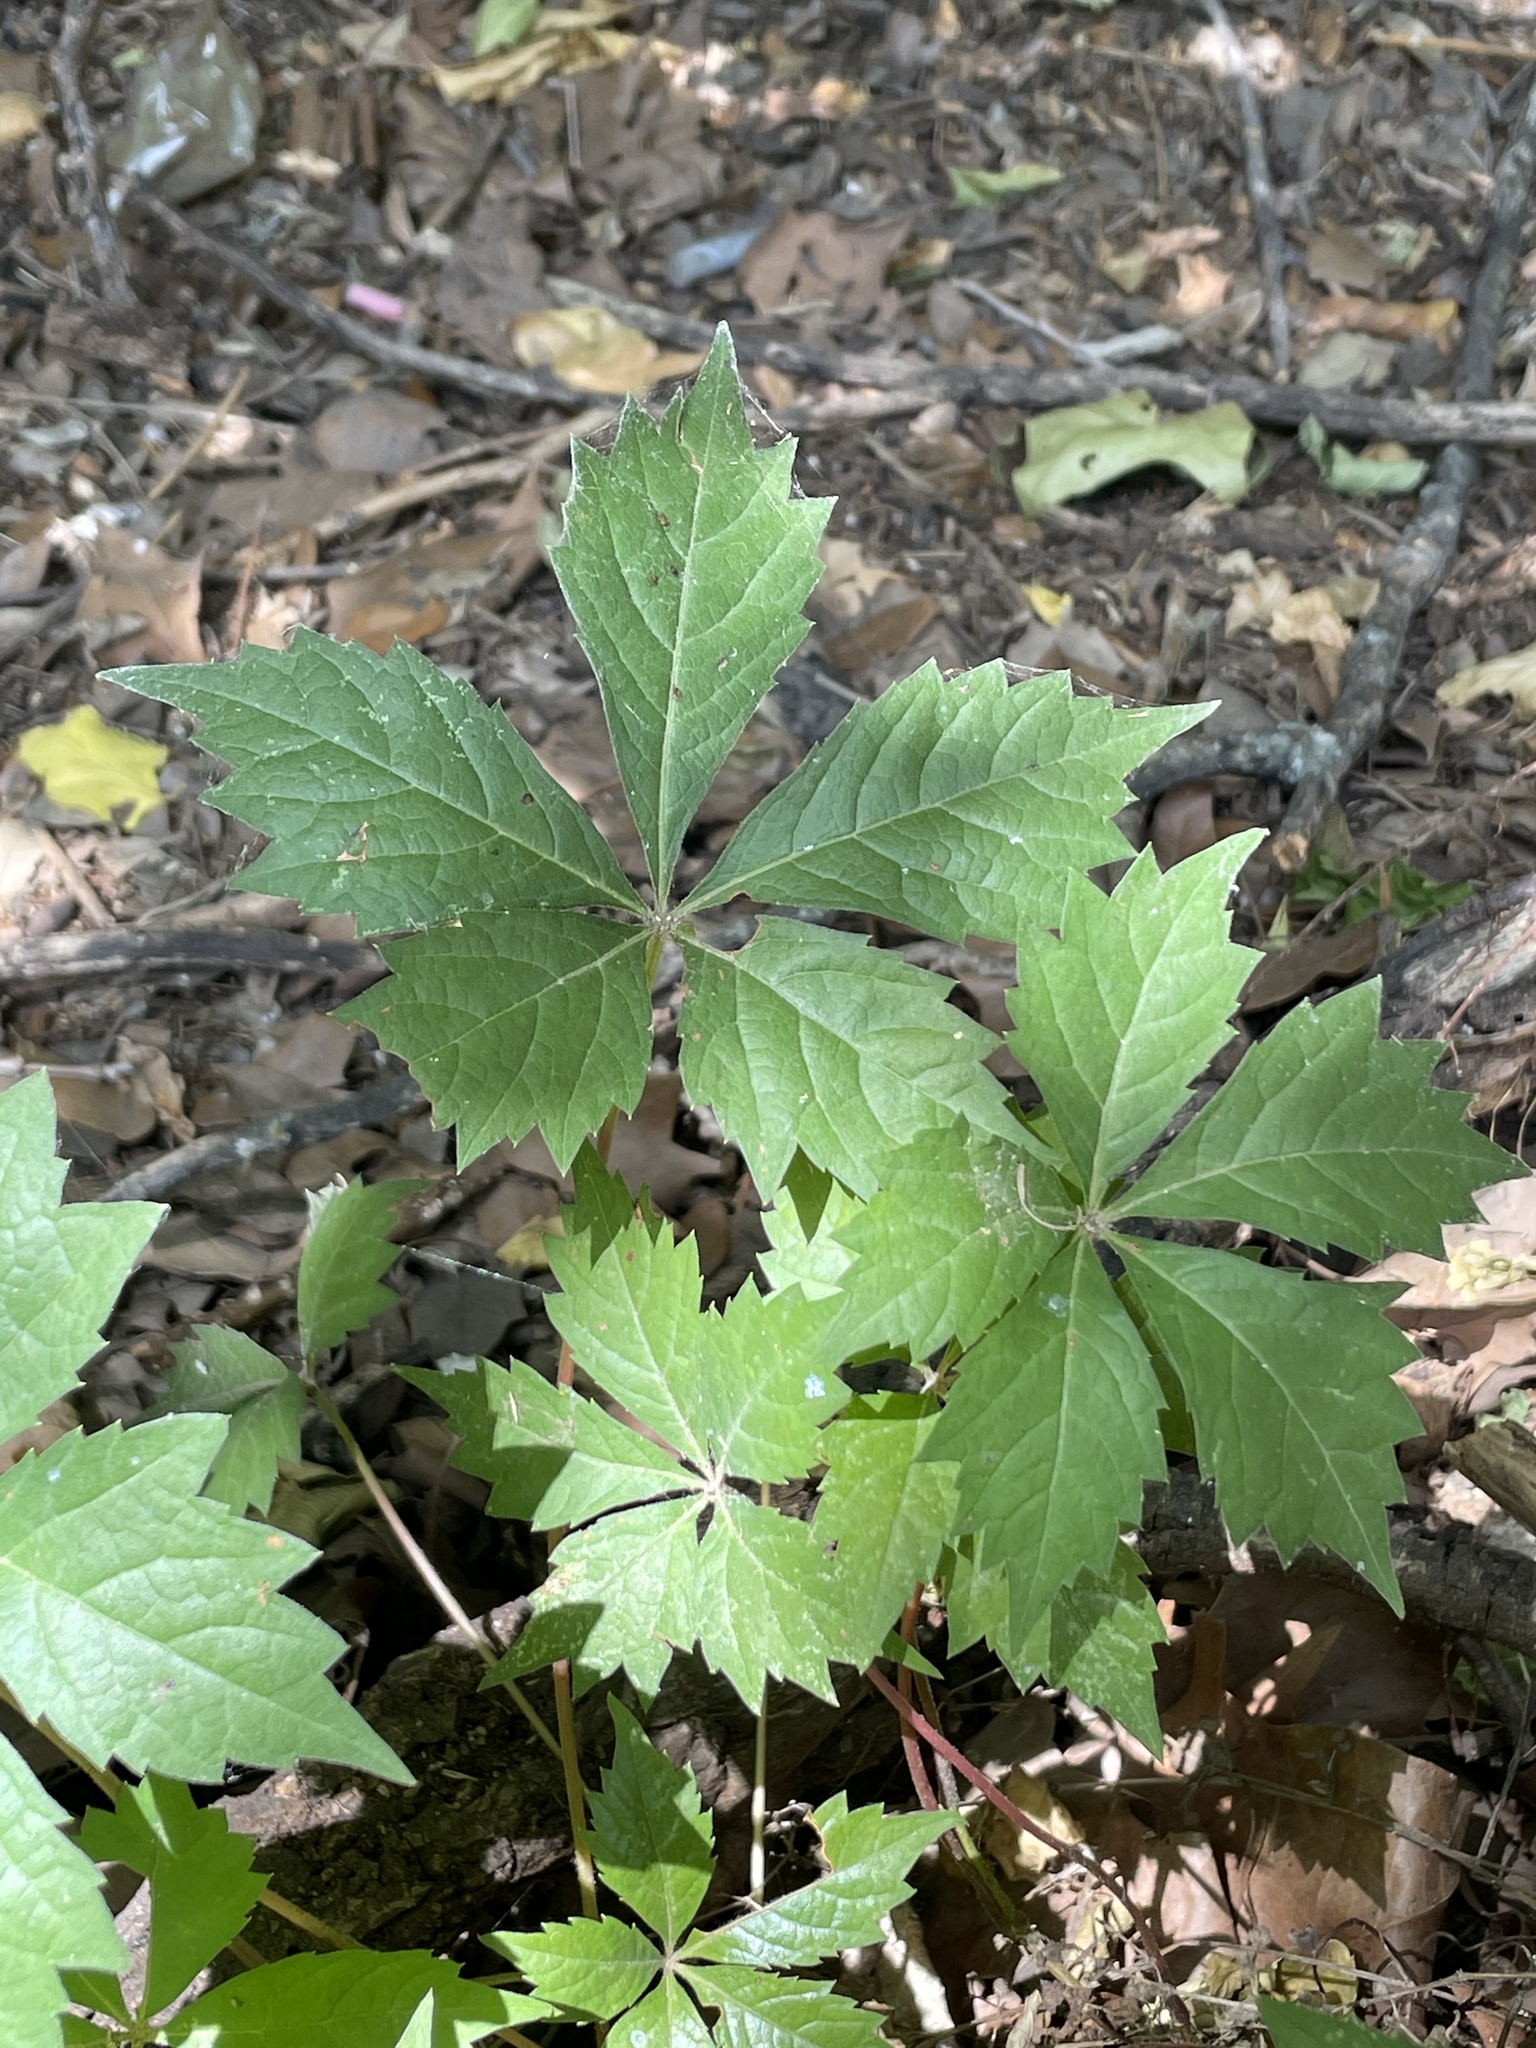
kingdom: Plantae
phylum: Tracheophyta
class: Magnoliopsida
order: Vitales
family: Vitaceae
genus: Parthenocissus
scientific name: Parthenocissus quinquefolia
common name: Virginia-creeper
